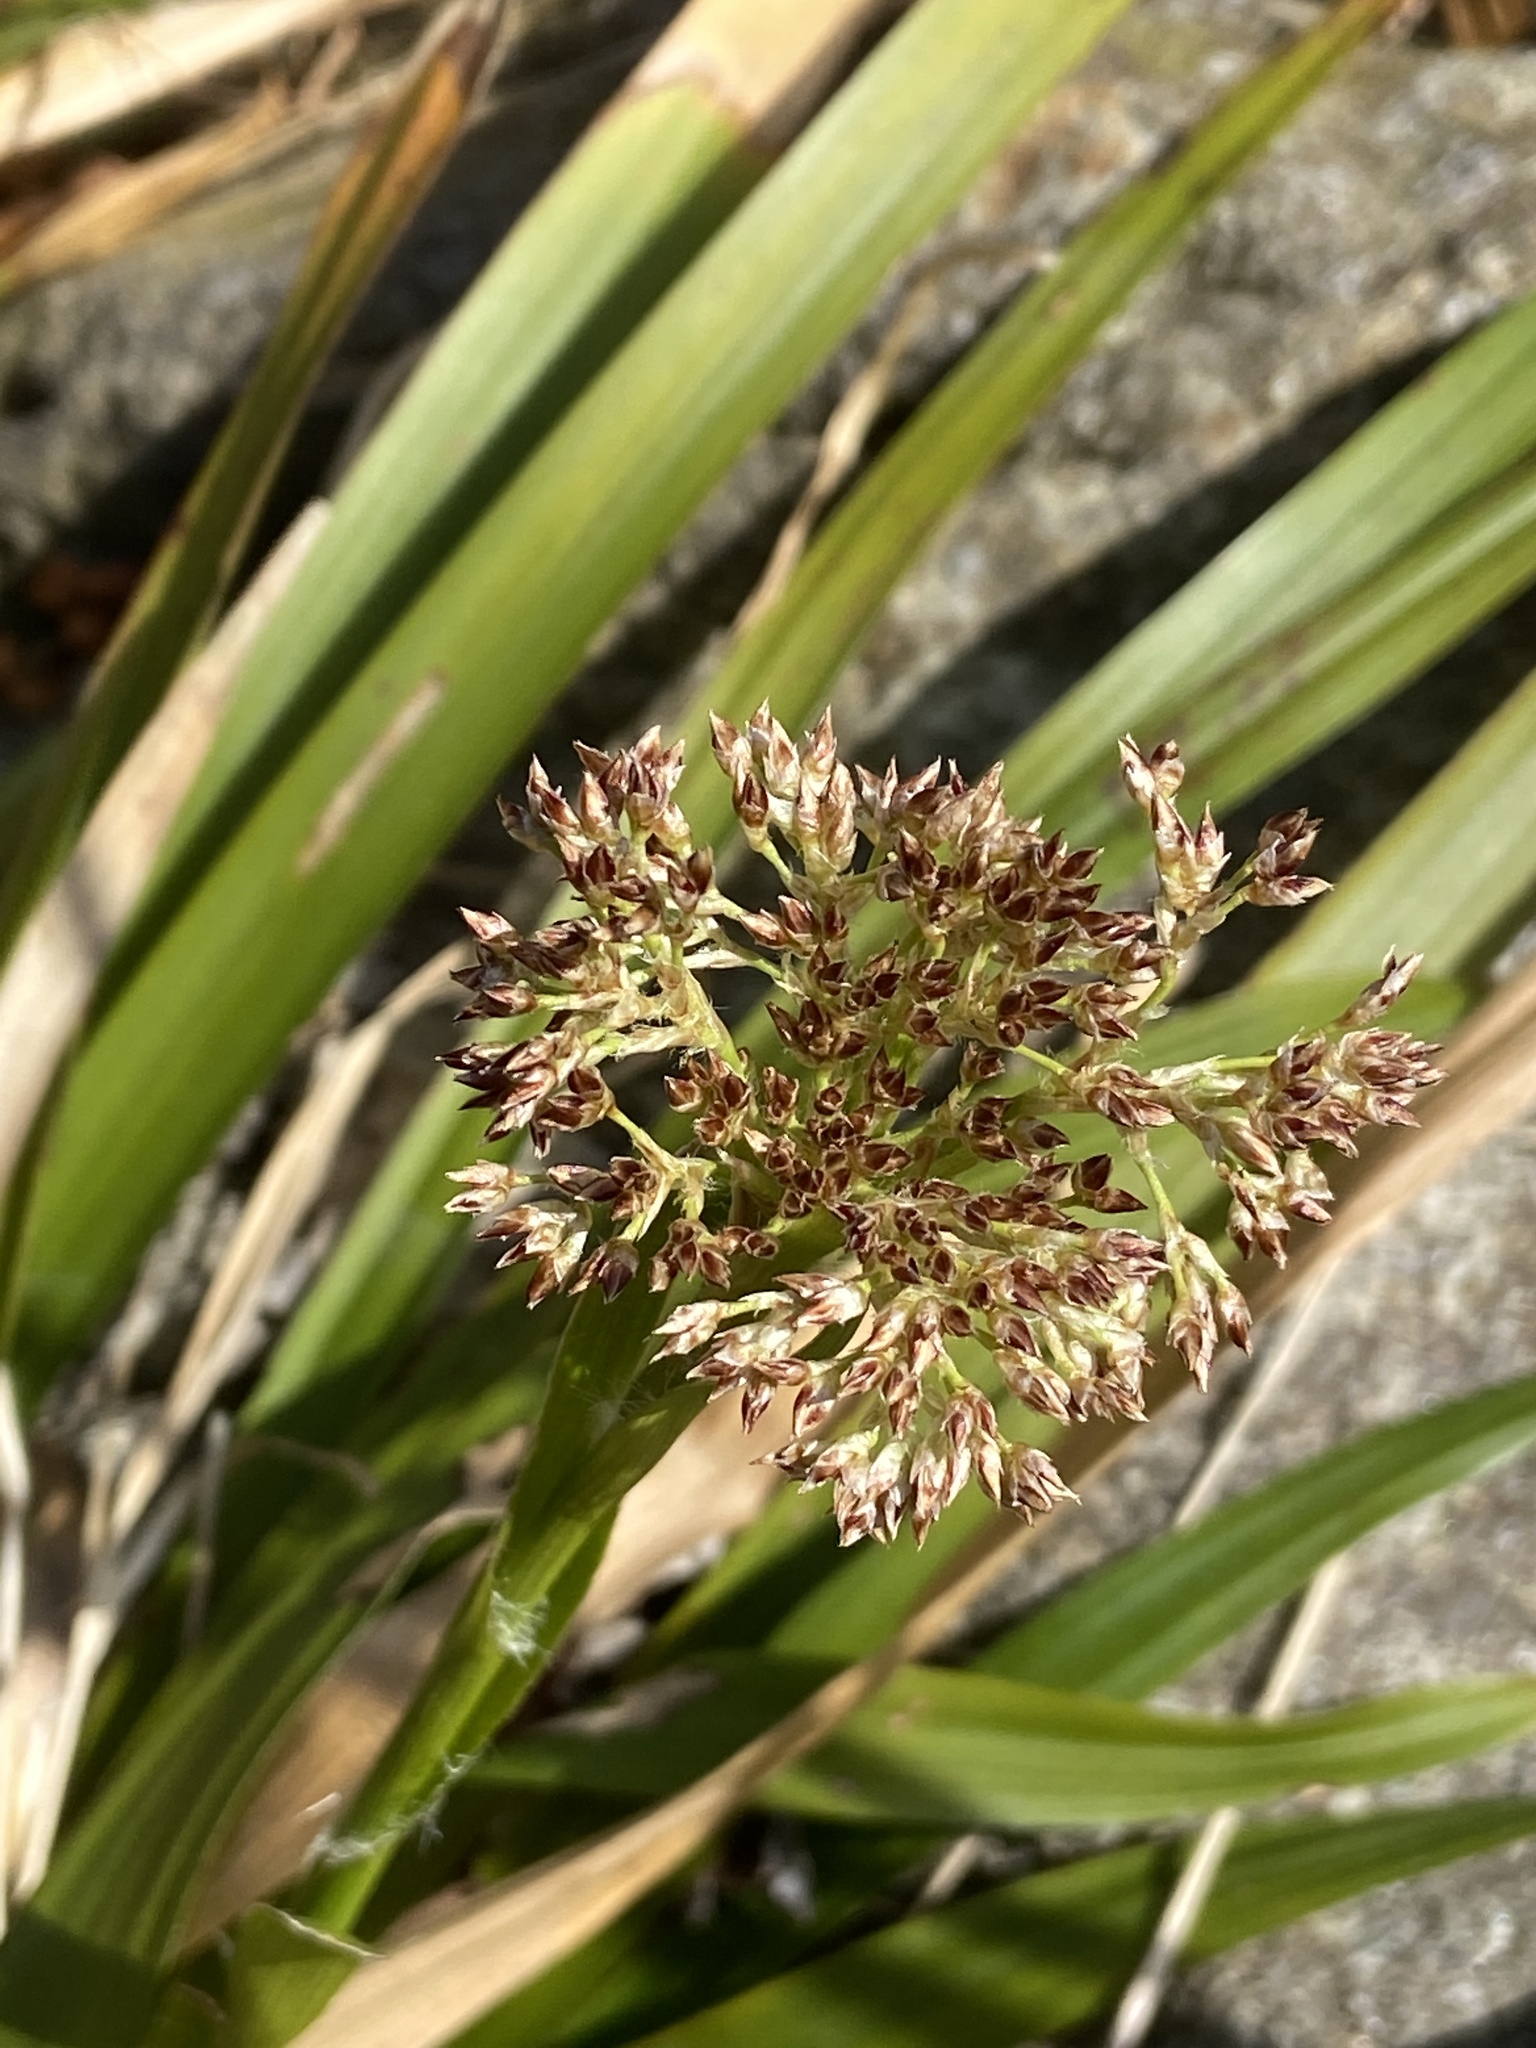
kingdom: Plantae
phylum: Tracheophyta
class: Liliopsida
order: Poales
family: Juncaceae
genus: Luzula
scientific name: Luzula sylvatica
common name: Great wood-rush
